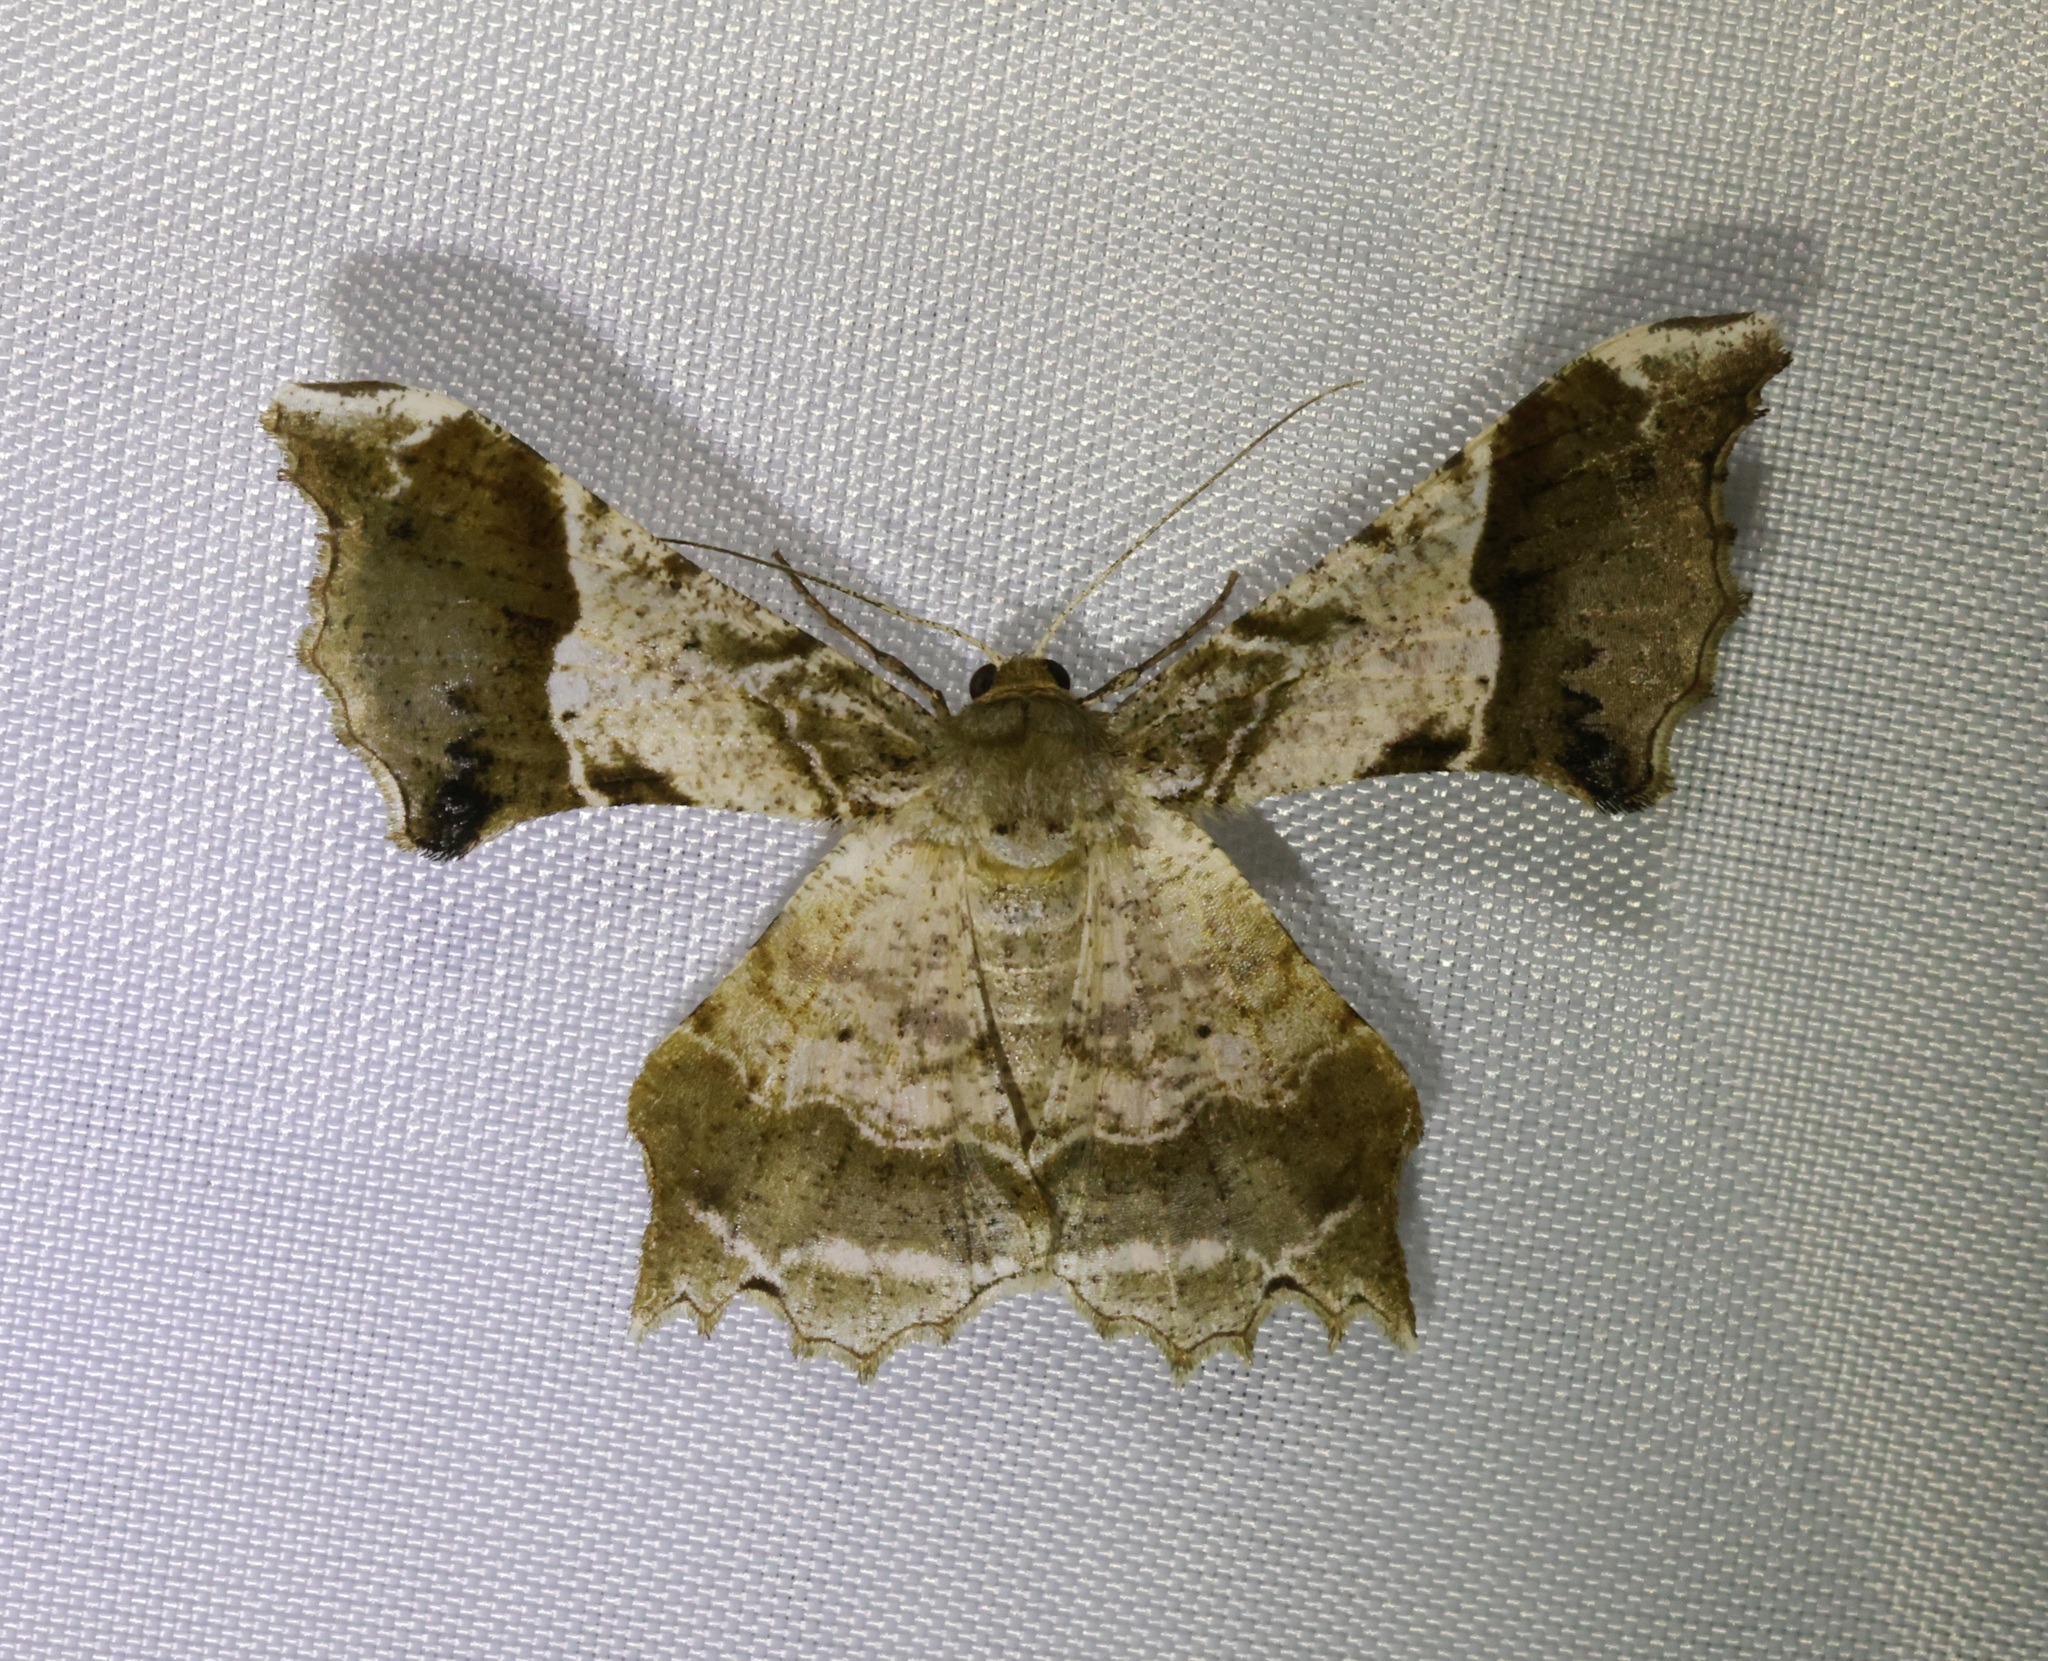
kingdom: Animalia
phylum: Arthropoda
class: Insecta
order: Lepidoptera
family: Geometridae
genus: Krananda
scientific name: Krananda oliveomarginata
